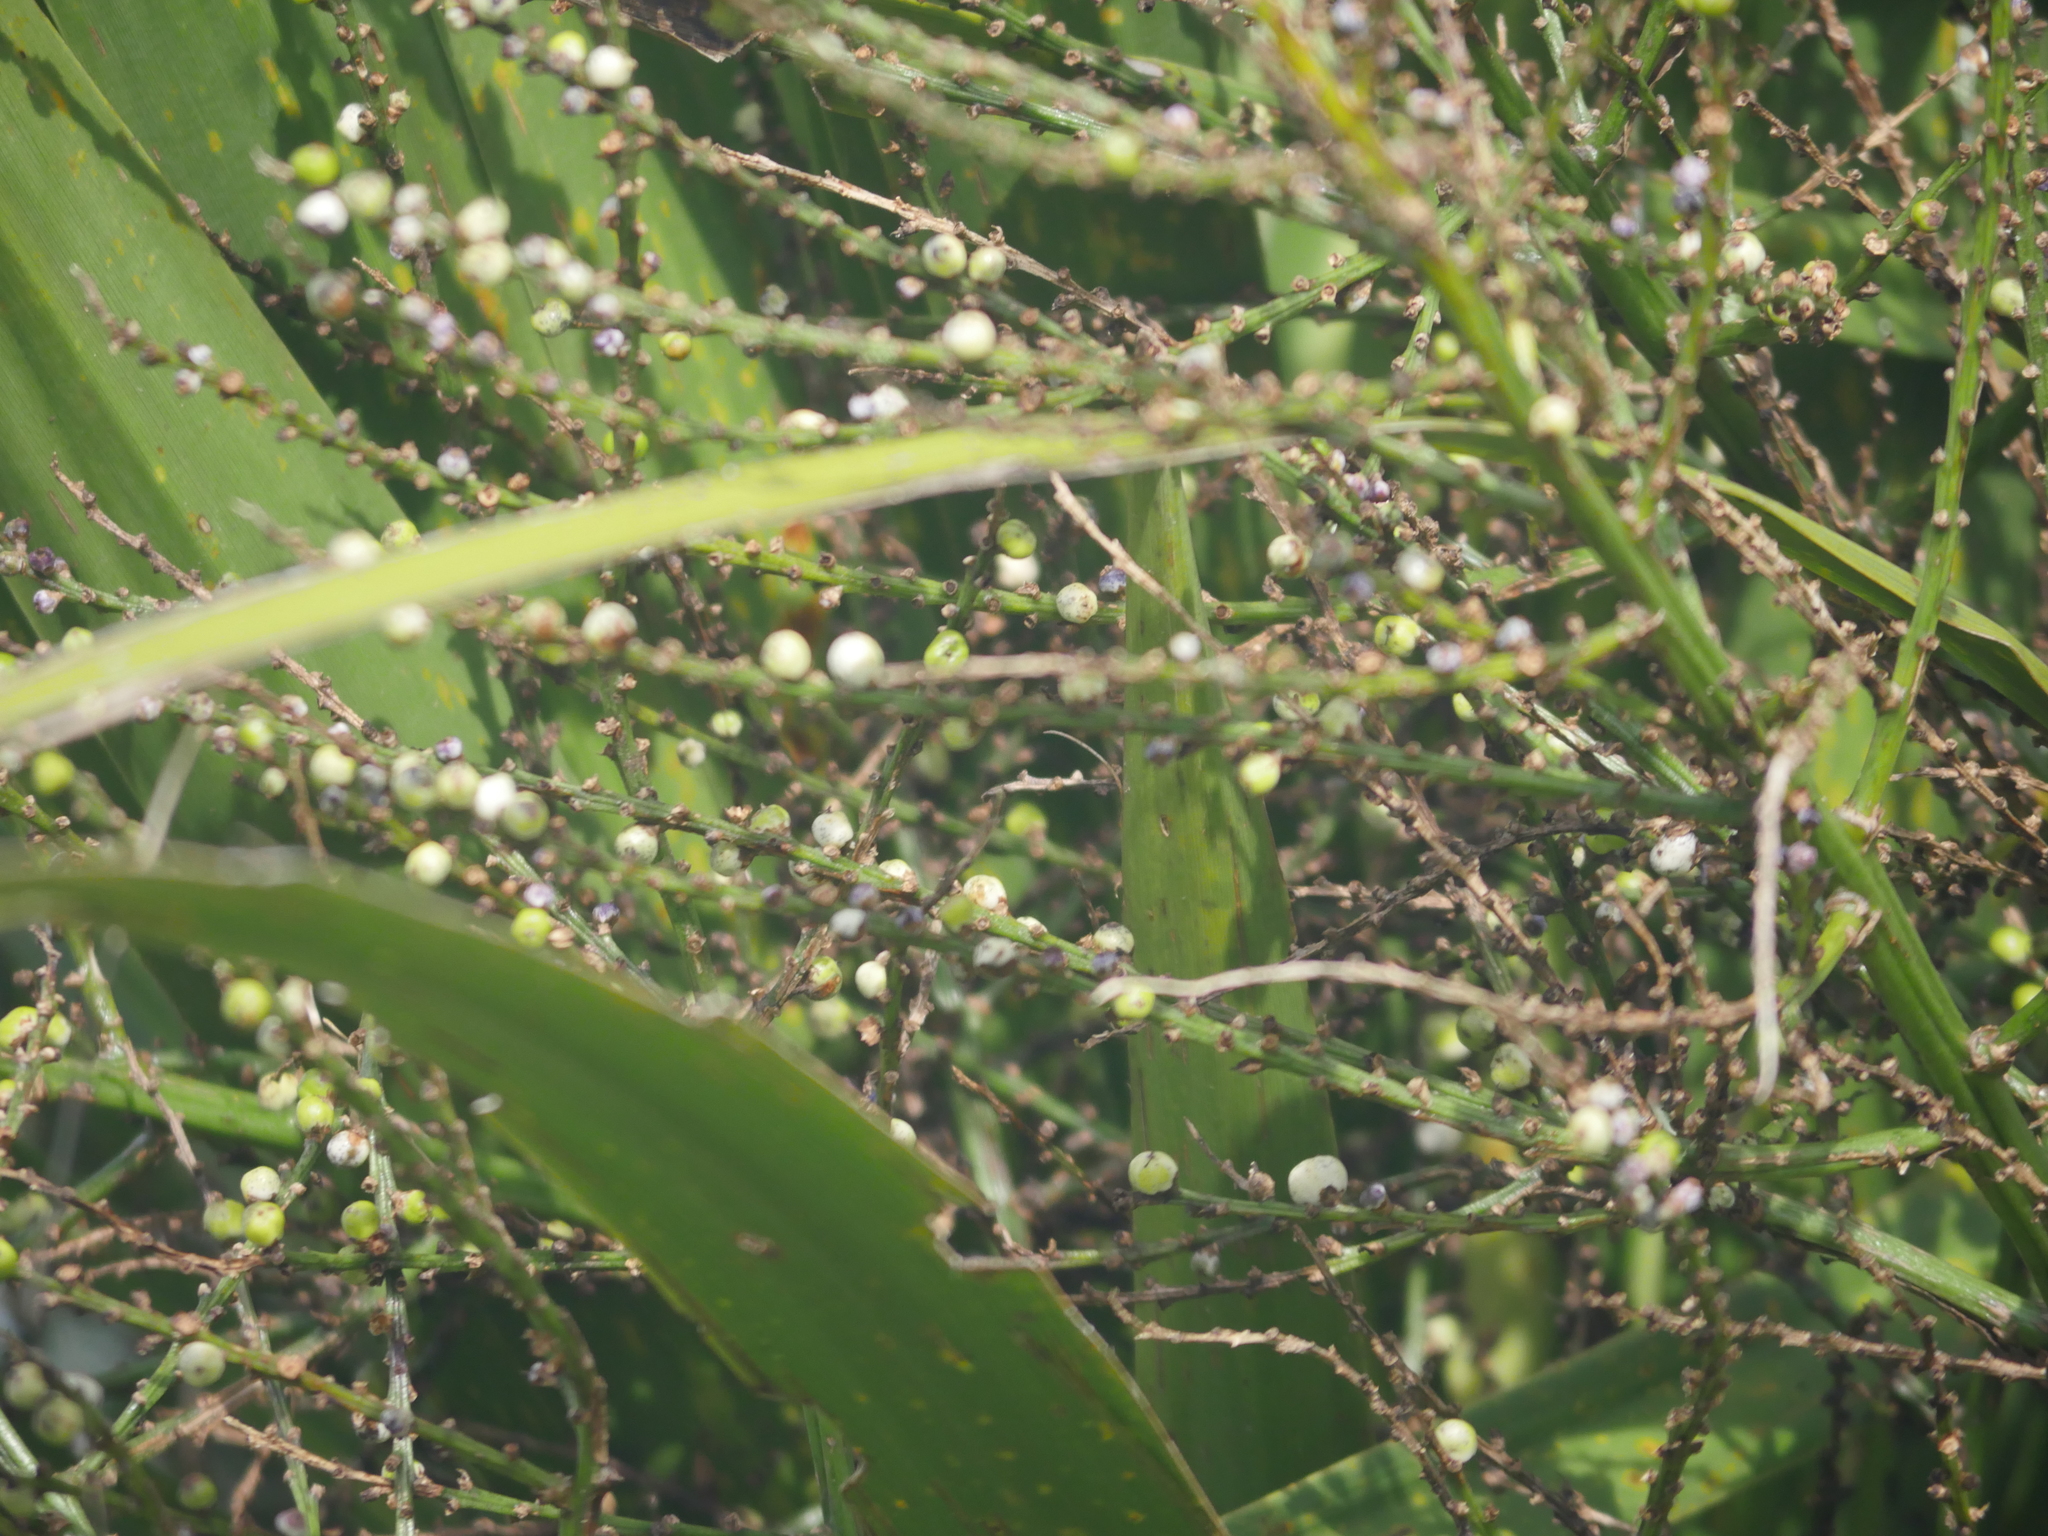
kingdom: Plantae
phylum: Tracheophyta
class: Liliopsida
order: Asparagales
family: Asparagaceae
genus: Cordyline
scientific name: Cordyline australis
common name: Cabbage-palm
